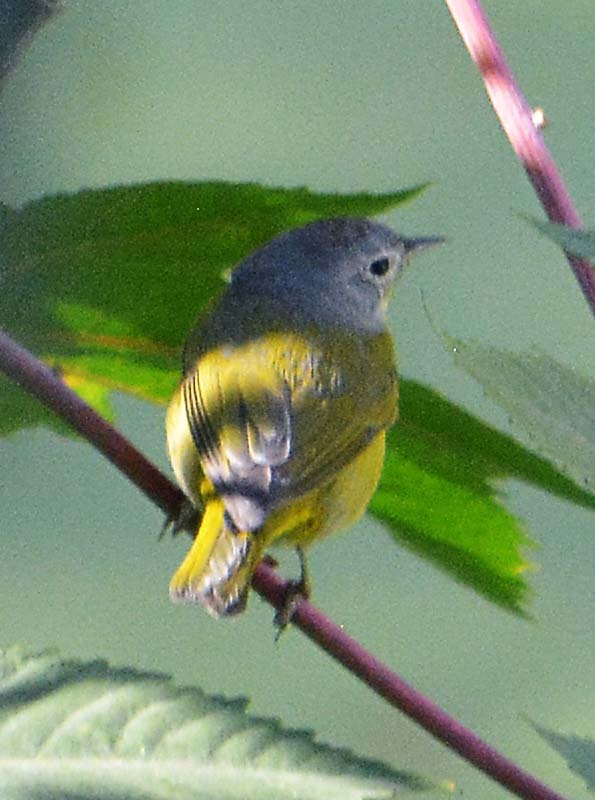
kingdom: Animalia
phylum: Chordata
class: Aves
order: Passeriformes
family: Parulidae
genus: Leiothlypis
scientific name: Leiothlypis ruficapilla
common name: Nashville warbler
